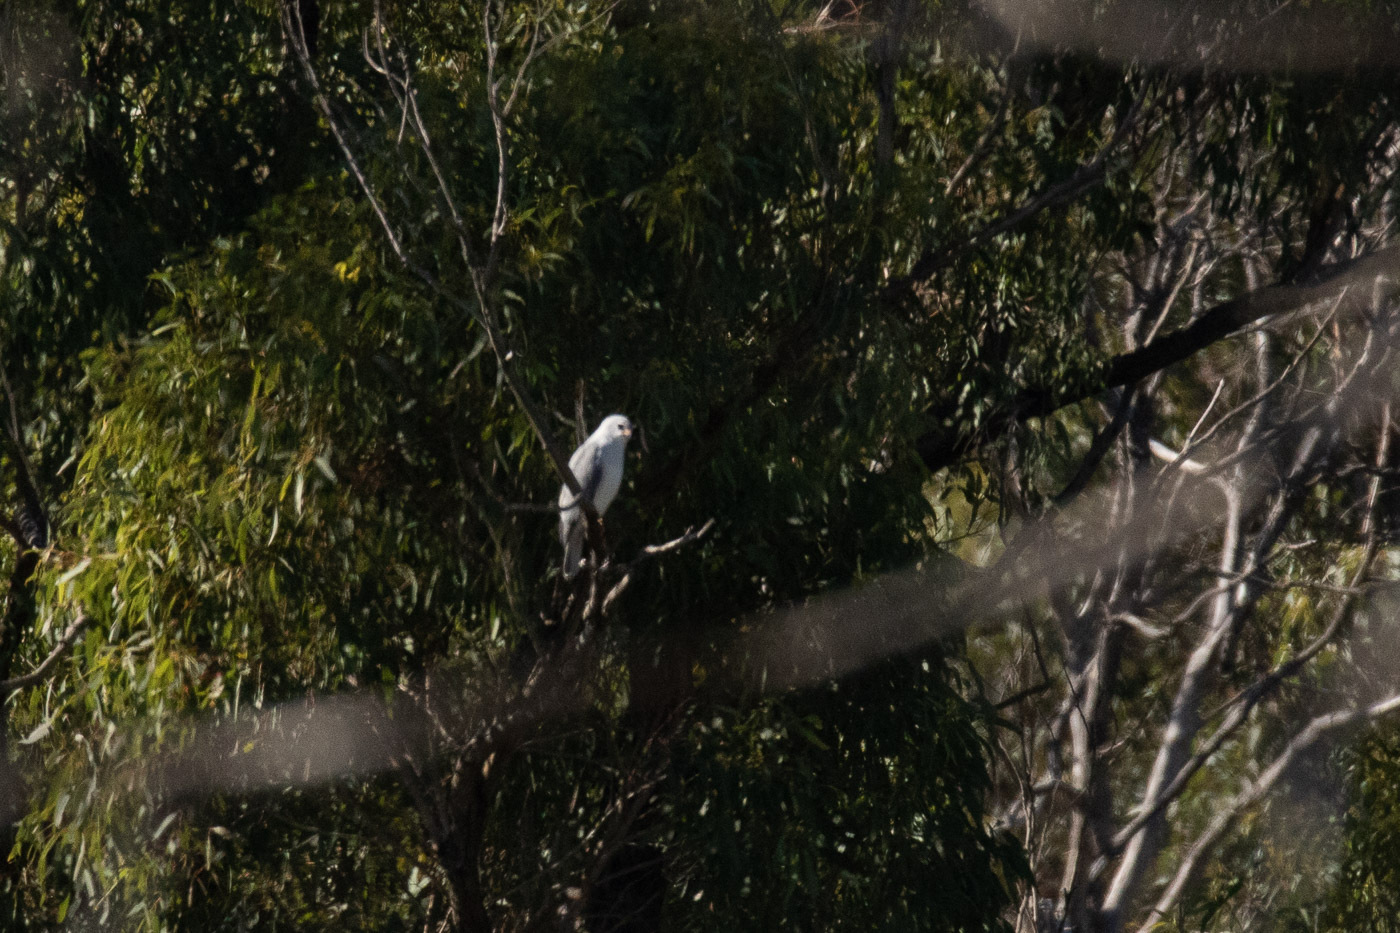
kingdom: Animalia
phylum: Chordata
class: Aves
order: Accipitriformes
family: Accipitridae
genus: Accipiter
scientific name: Accipiter novaehollandiae
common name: Grey goshawk
